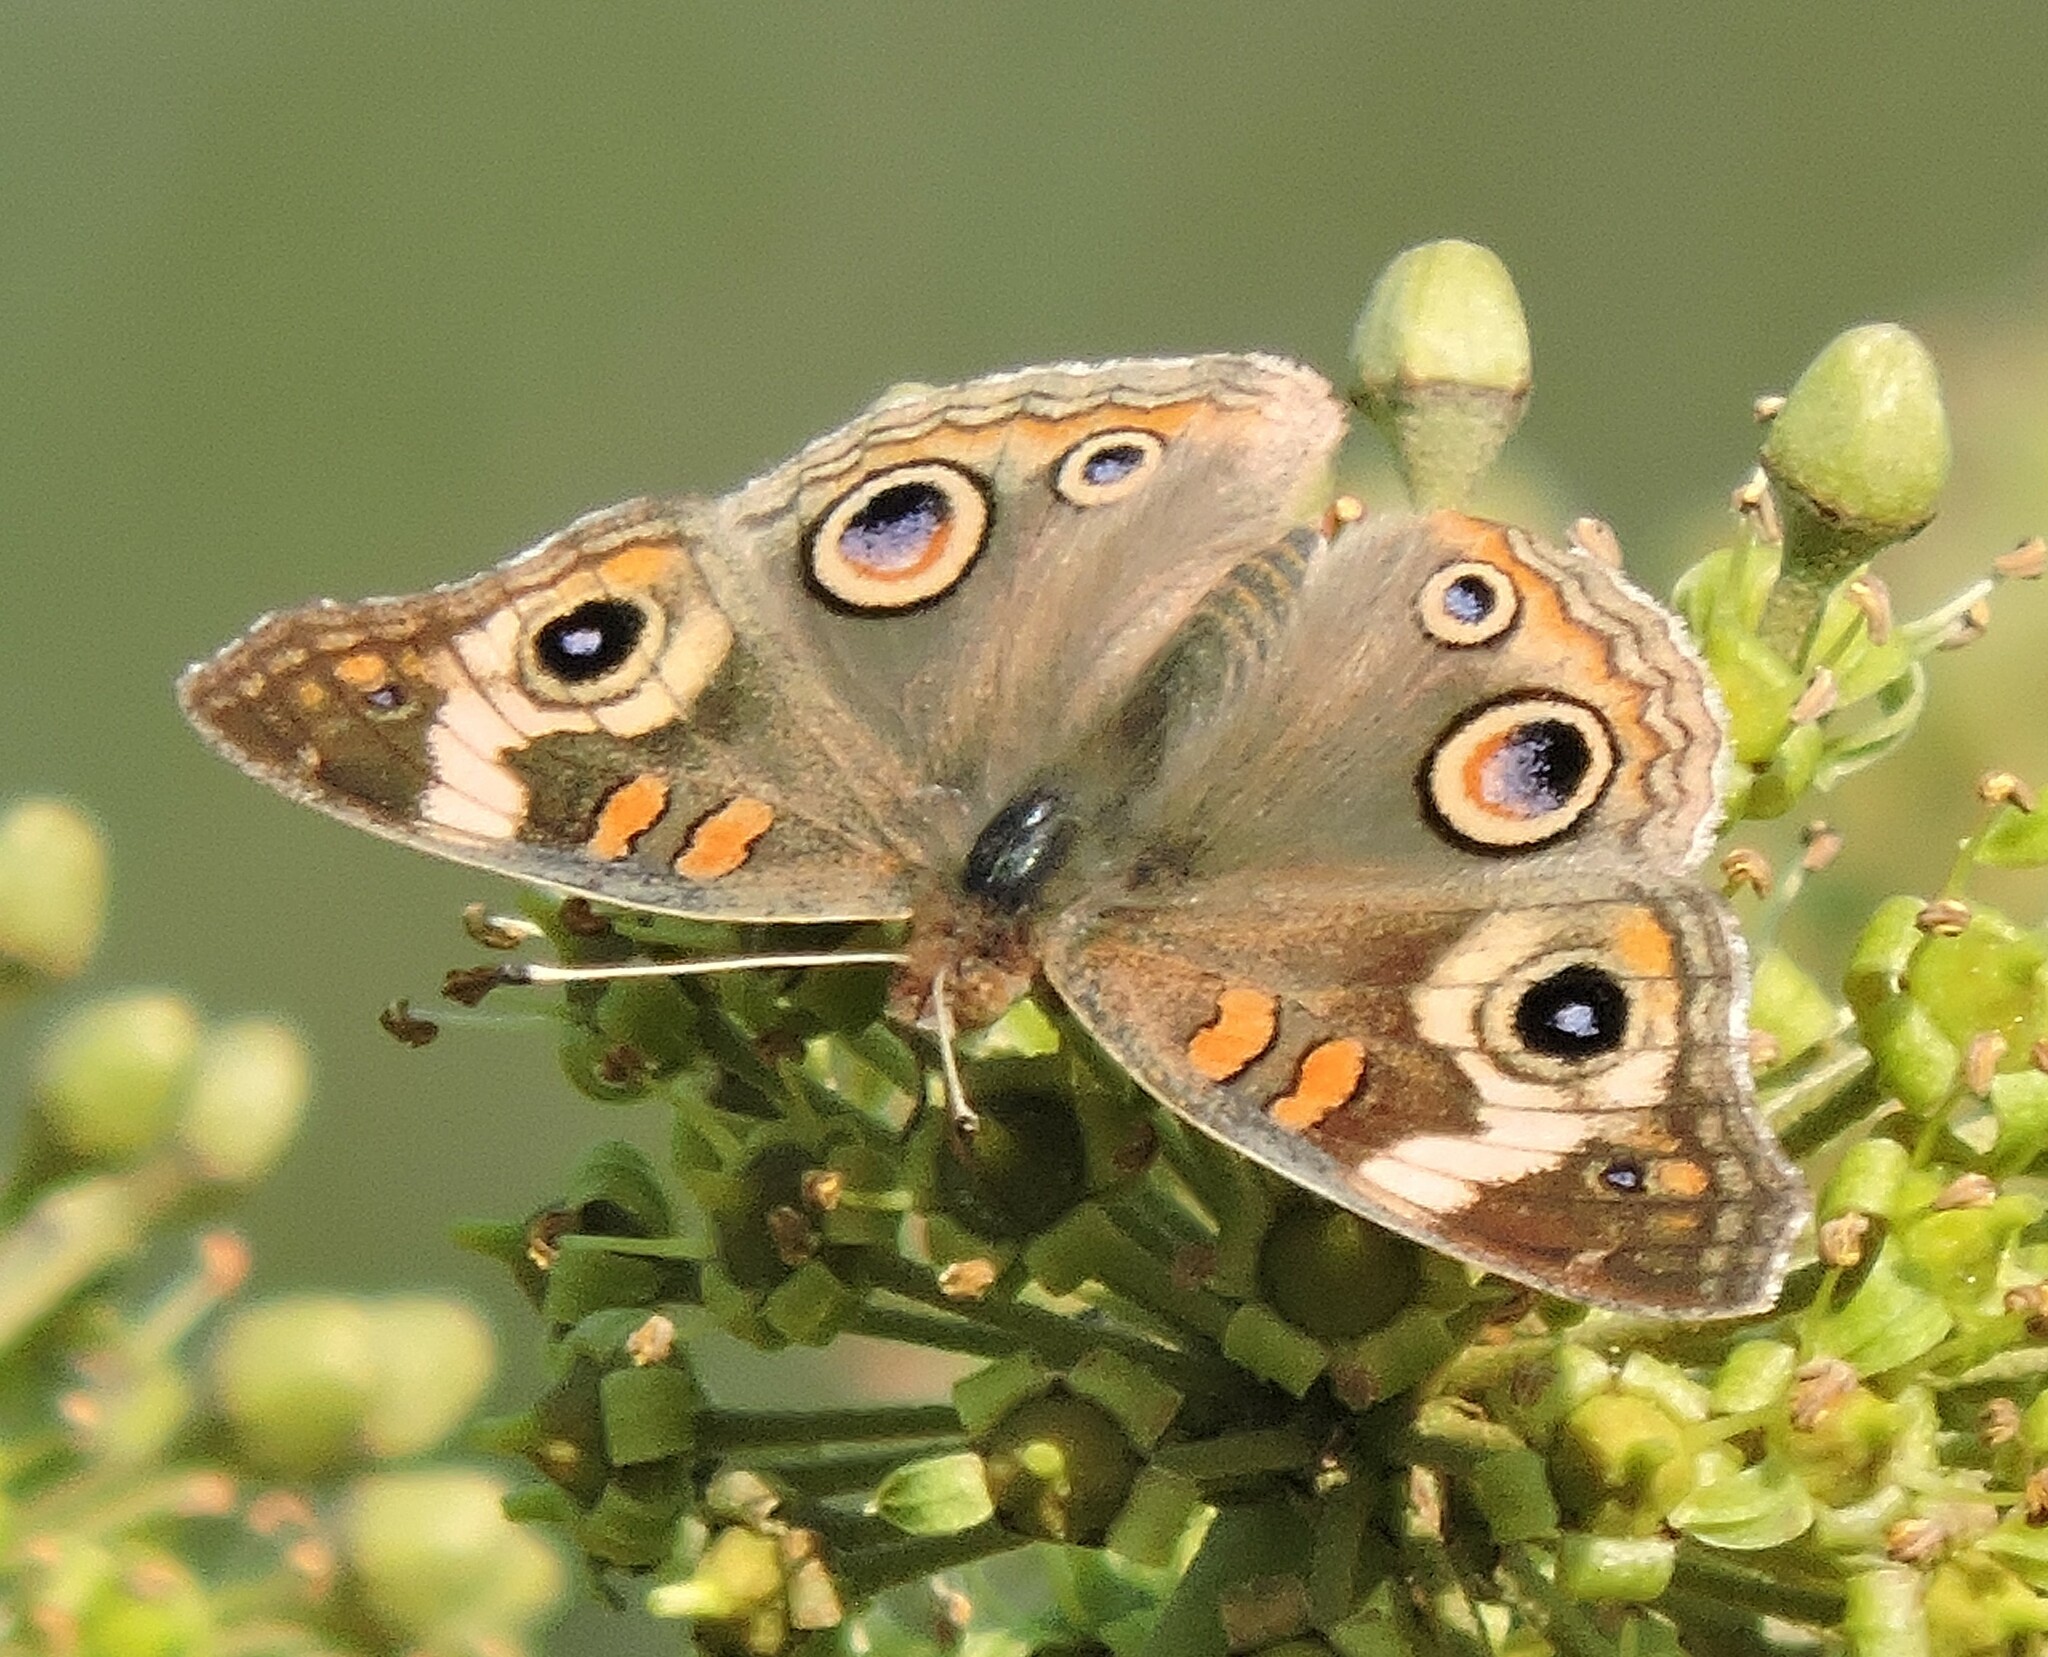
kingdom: Animalia
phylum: Arthropoda
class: Insecta
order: Lepidoptera
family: Nymphalidae
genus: Junonia
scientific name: Junonia grisea
